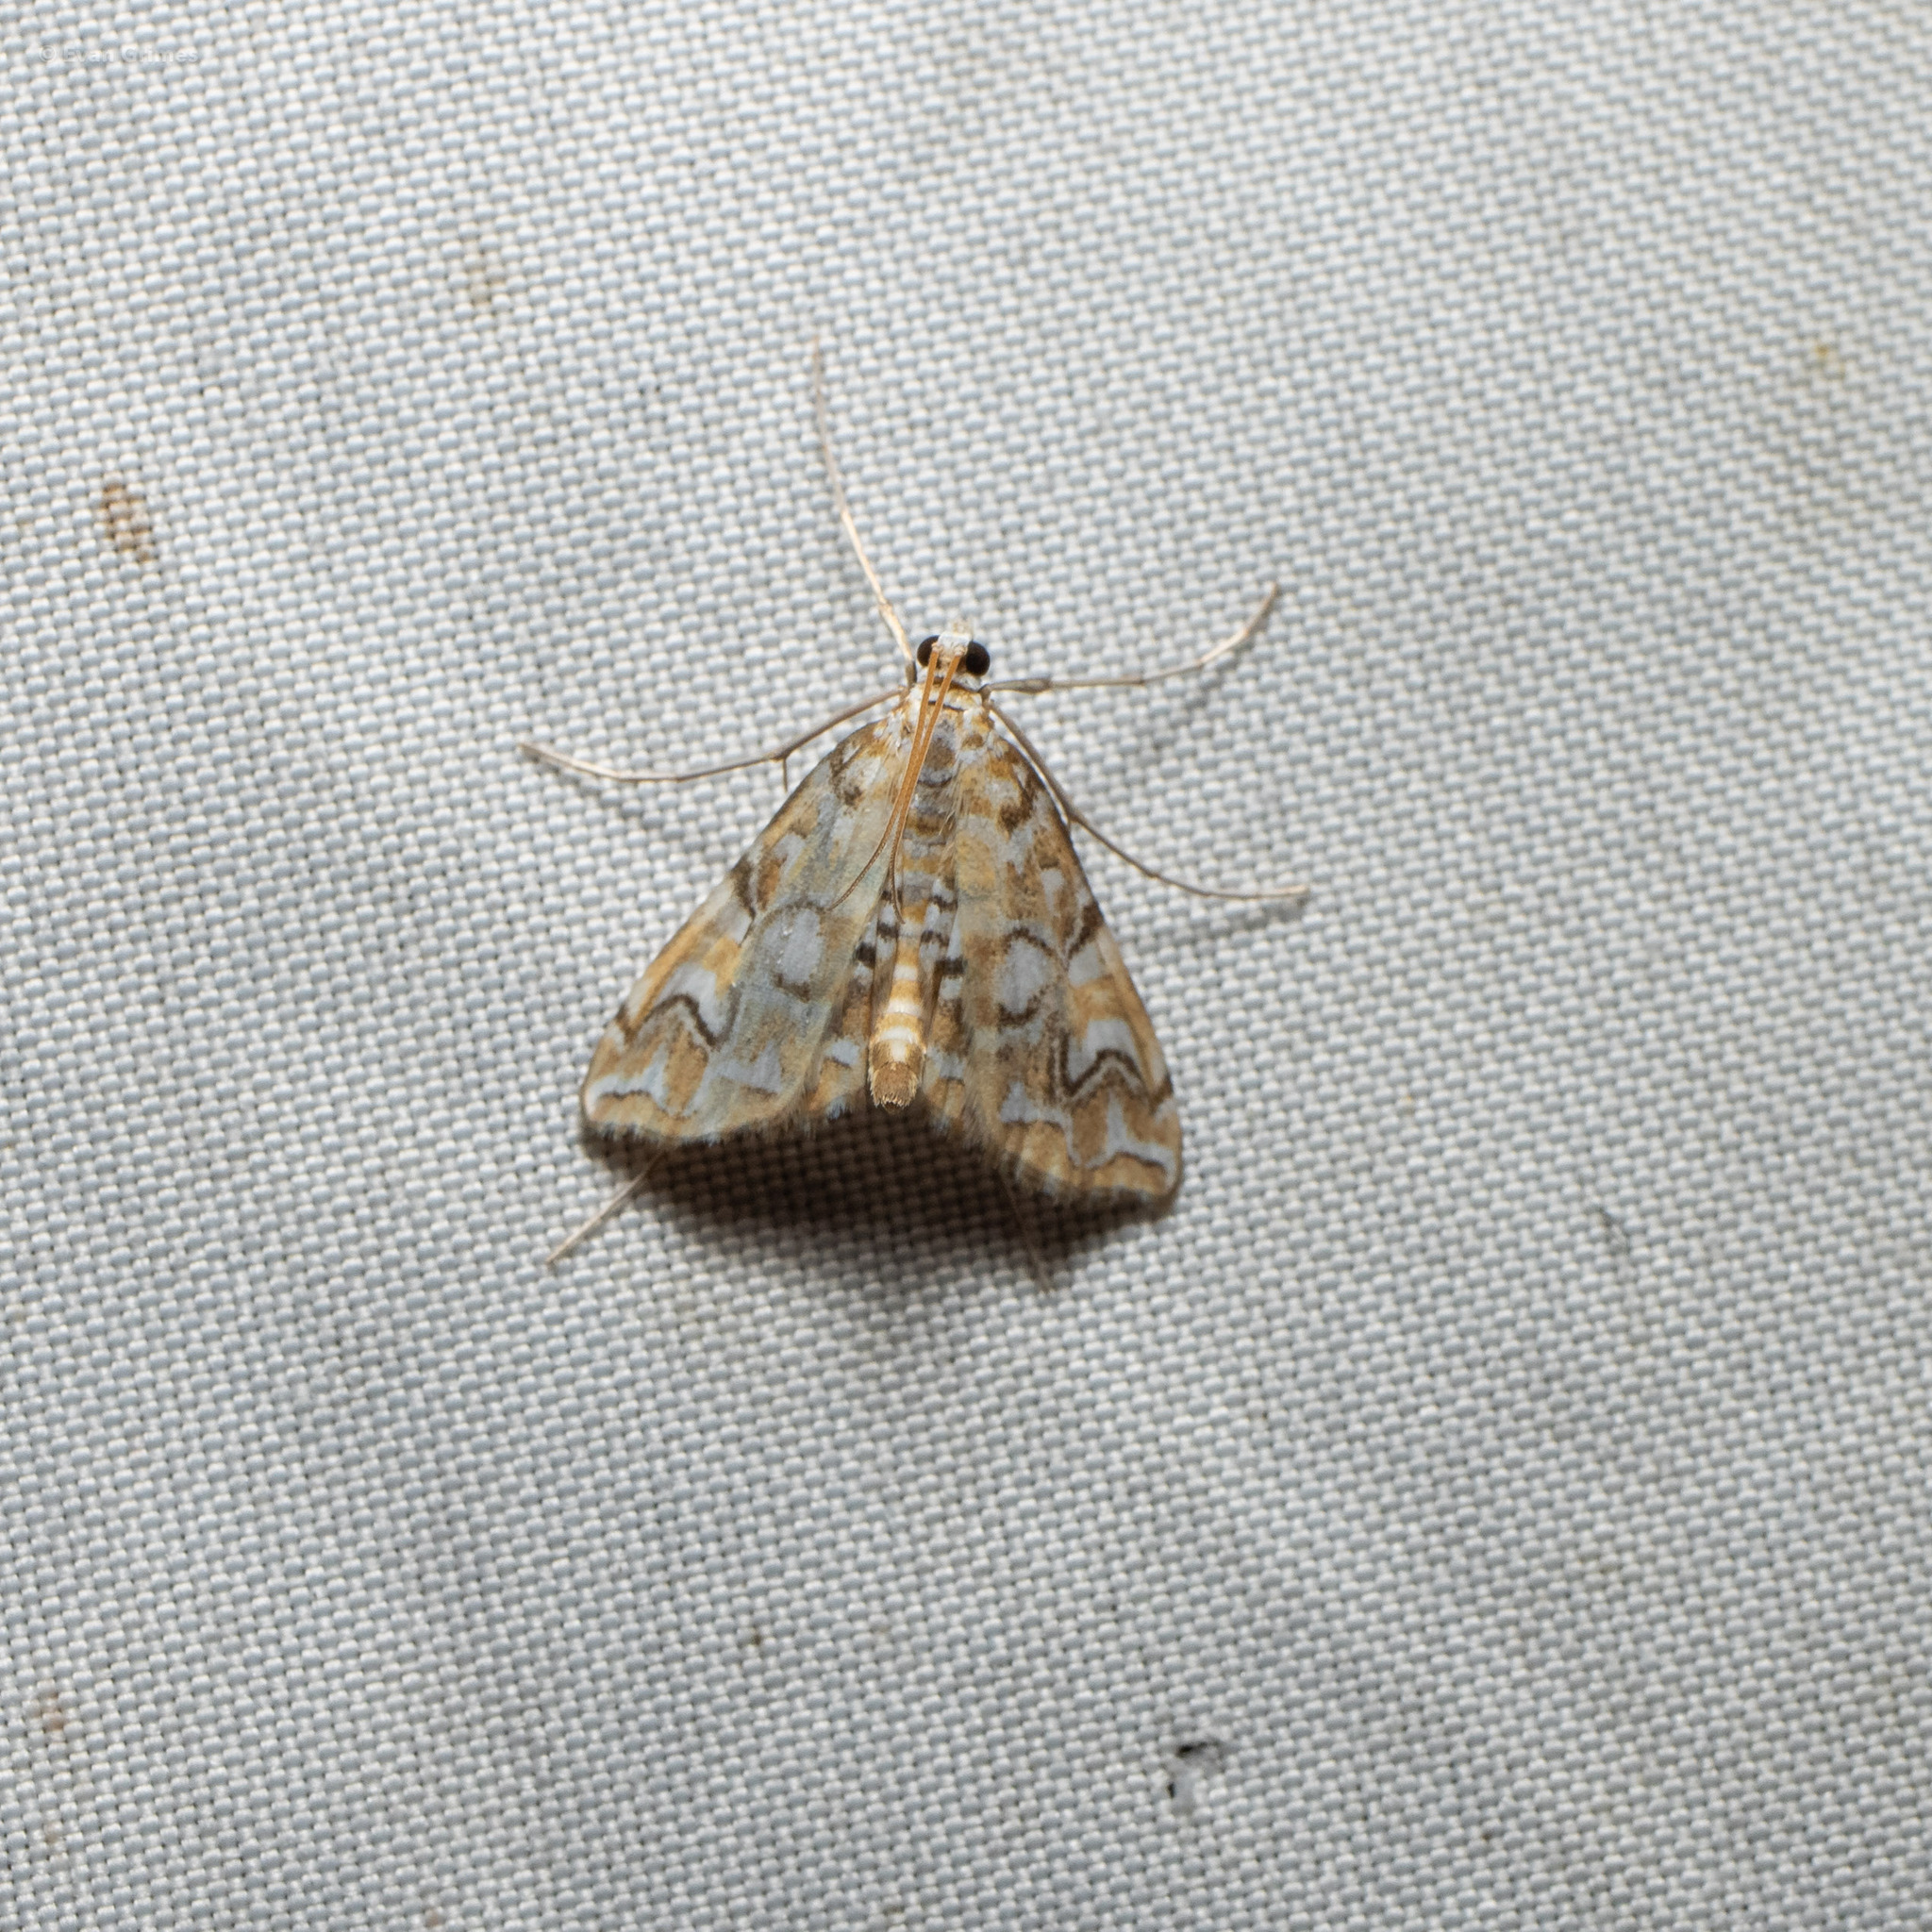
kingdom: Animalia
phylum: Arthropoda
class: Insecta
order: Lepidoptera
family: Crambidae
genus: Elophila
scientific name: Elophila icciusalis
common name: Pondside pyralid moth
